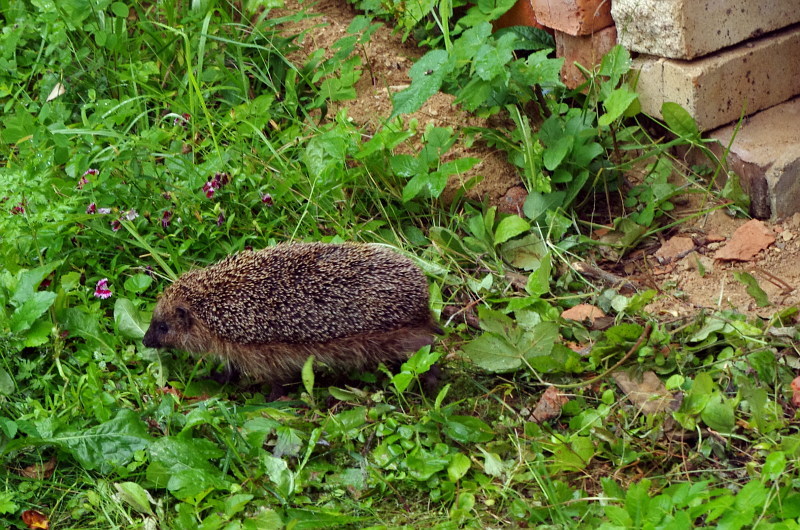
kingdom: Animalia
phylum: Chordata
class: Mammalia
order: Erinaceomorpha
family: Erinaceidae
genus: Erinaceus
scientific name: Erinaceus europaeus
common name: West european hedgehog
